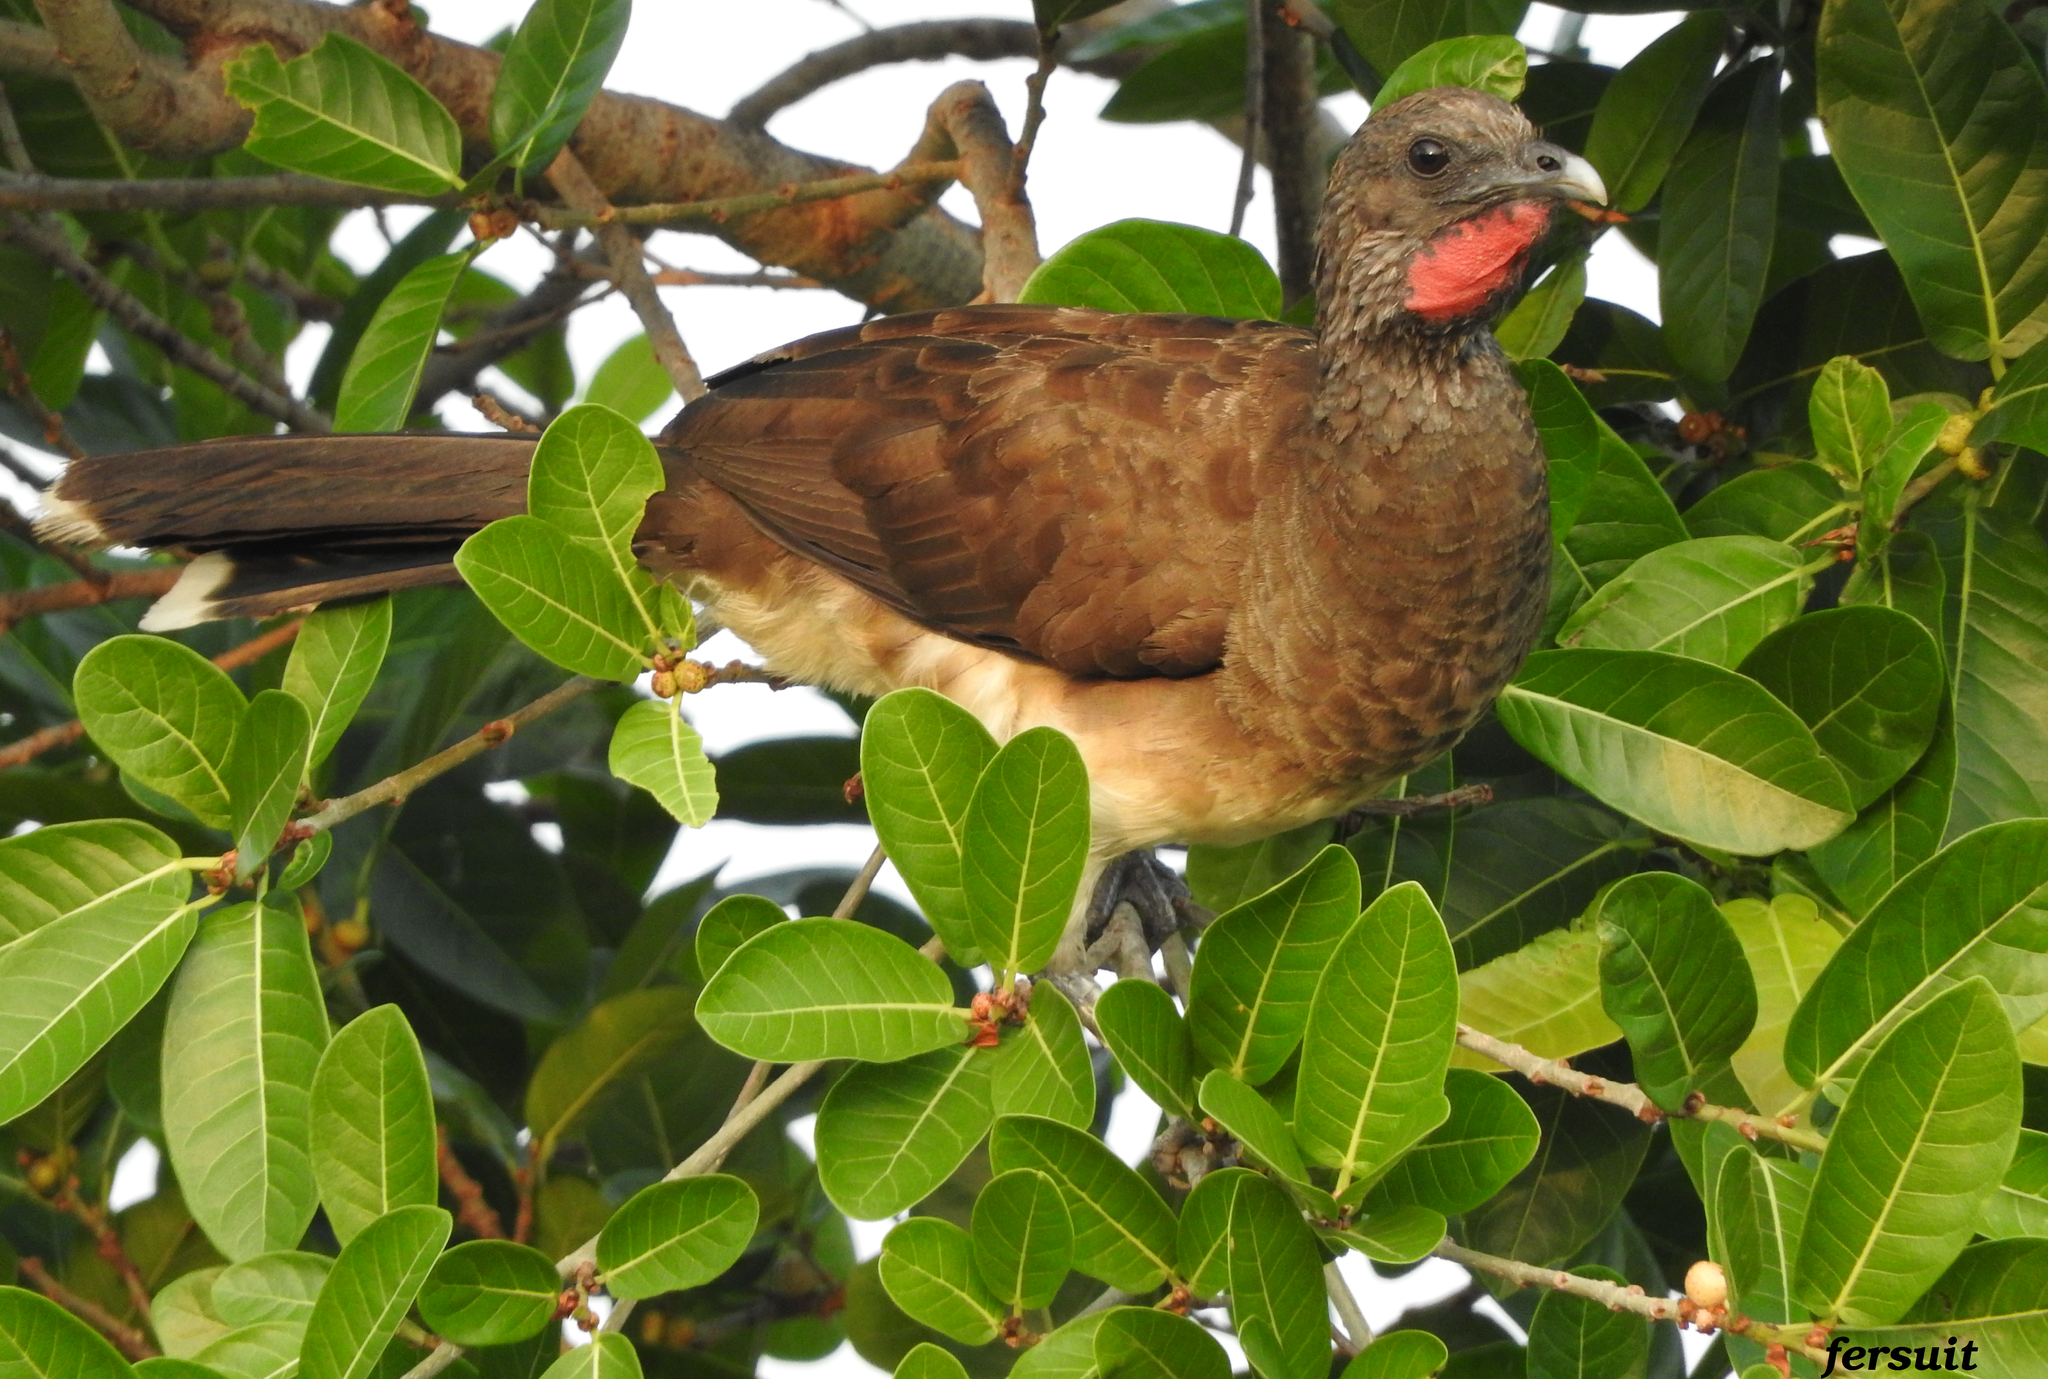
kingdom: Animalia
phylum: Chordata
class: Aves
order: Galliformes
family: Cracidae
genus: Ortalis
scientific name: Ortalis leucogastra
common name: White-bellied chachalaca
